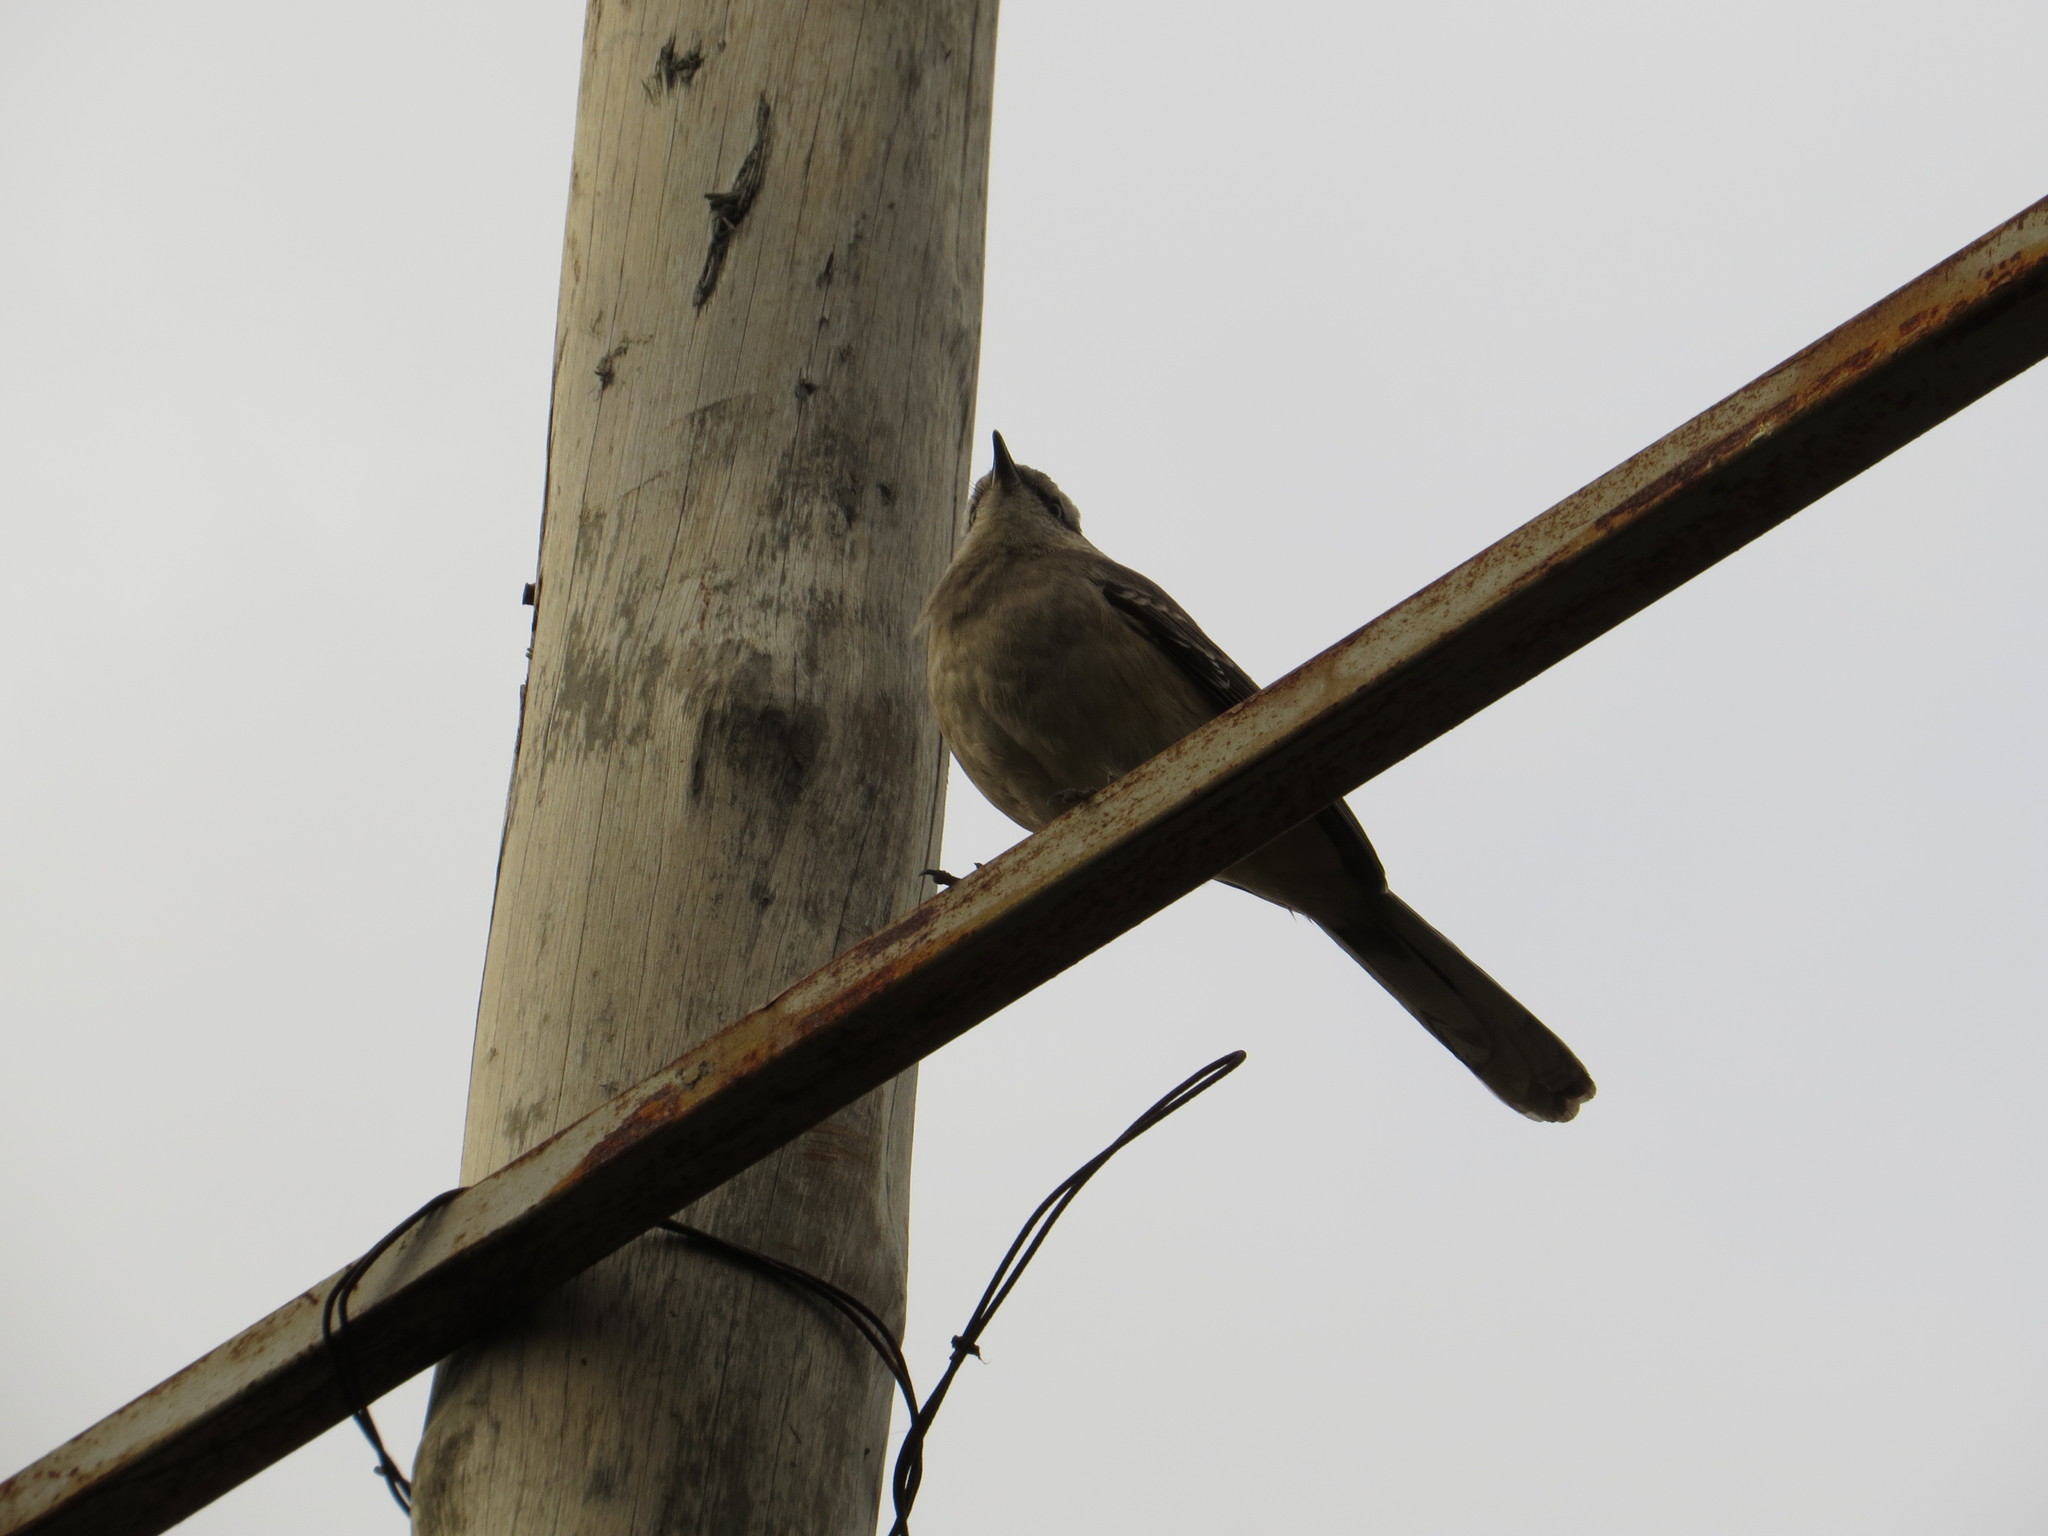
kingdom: Animalia
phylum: Chordata
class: Aves
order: Passeriformes
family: Mimidae
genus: Mimus
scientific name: Mimus saturninus
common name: Chalk-browed mockingbird
